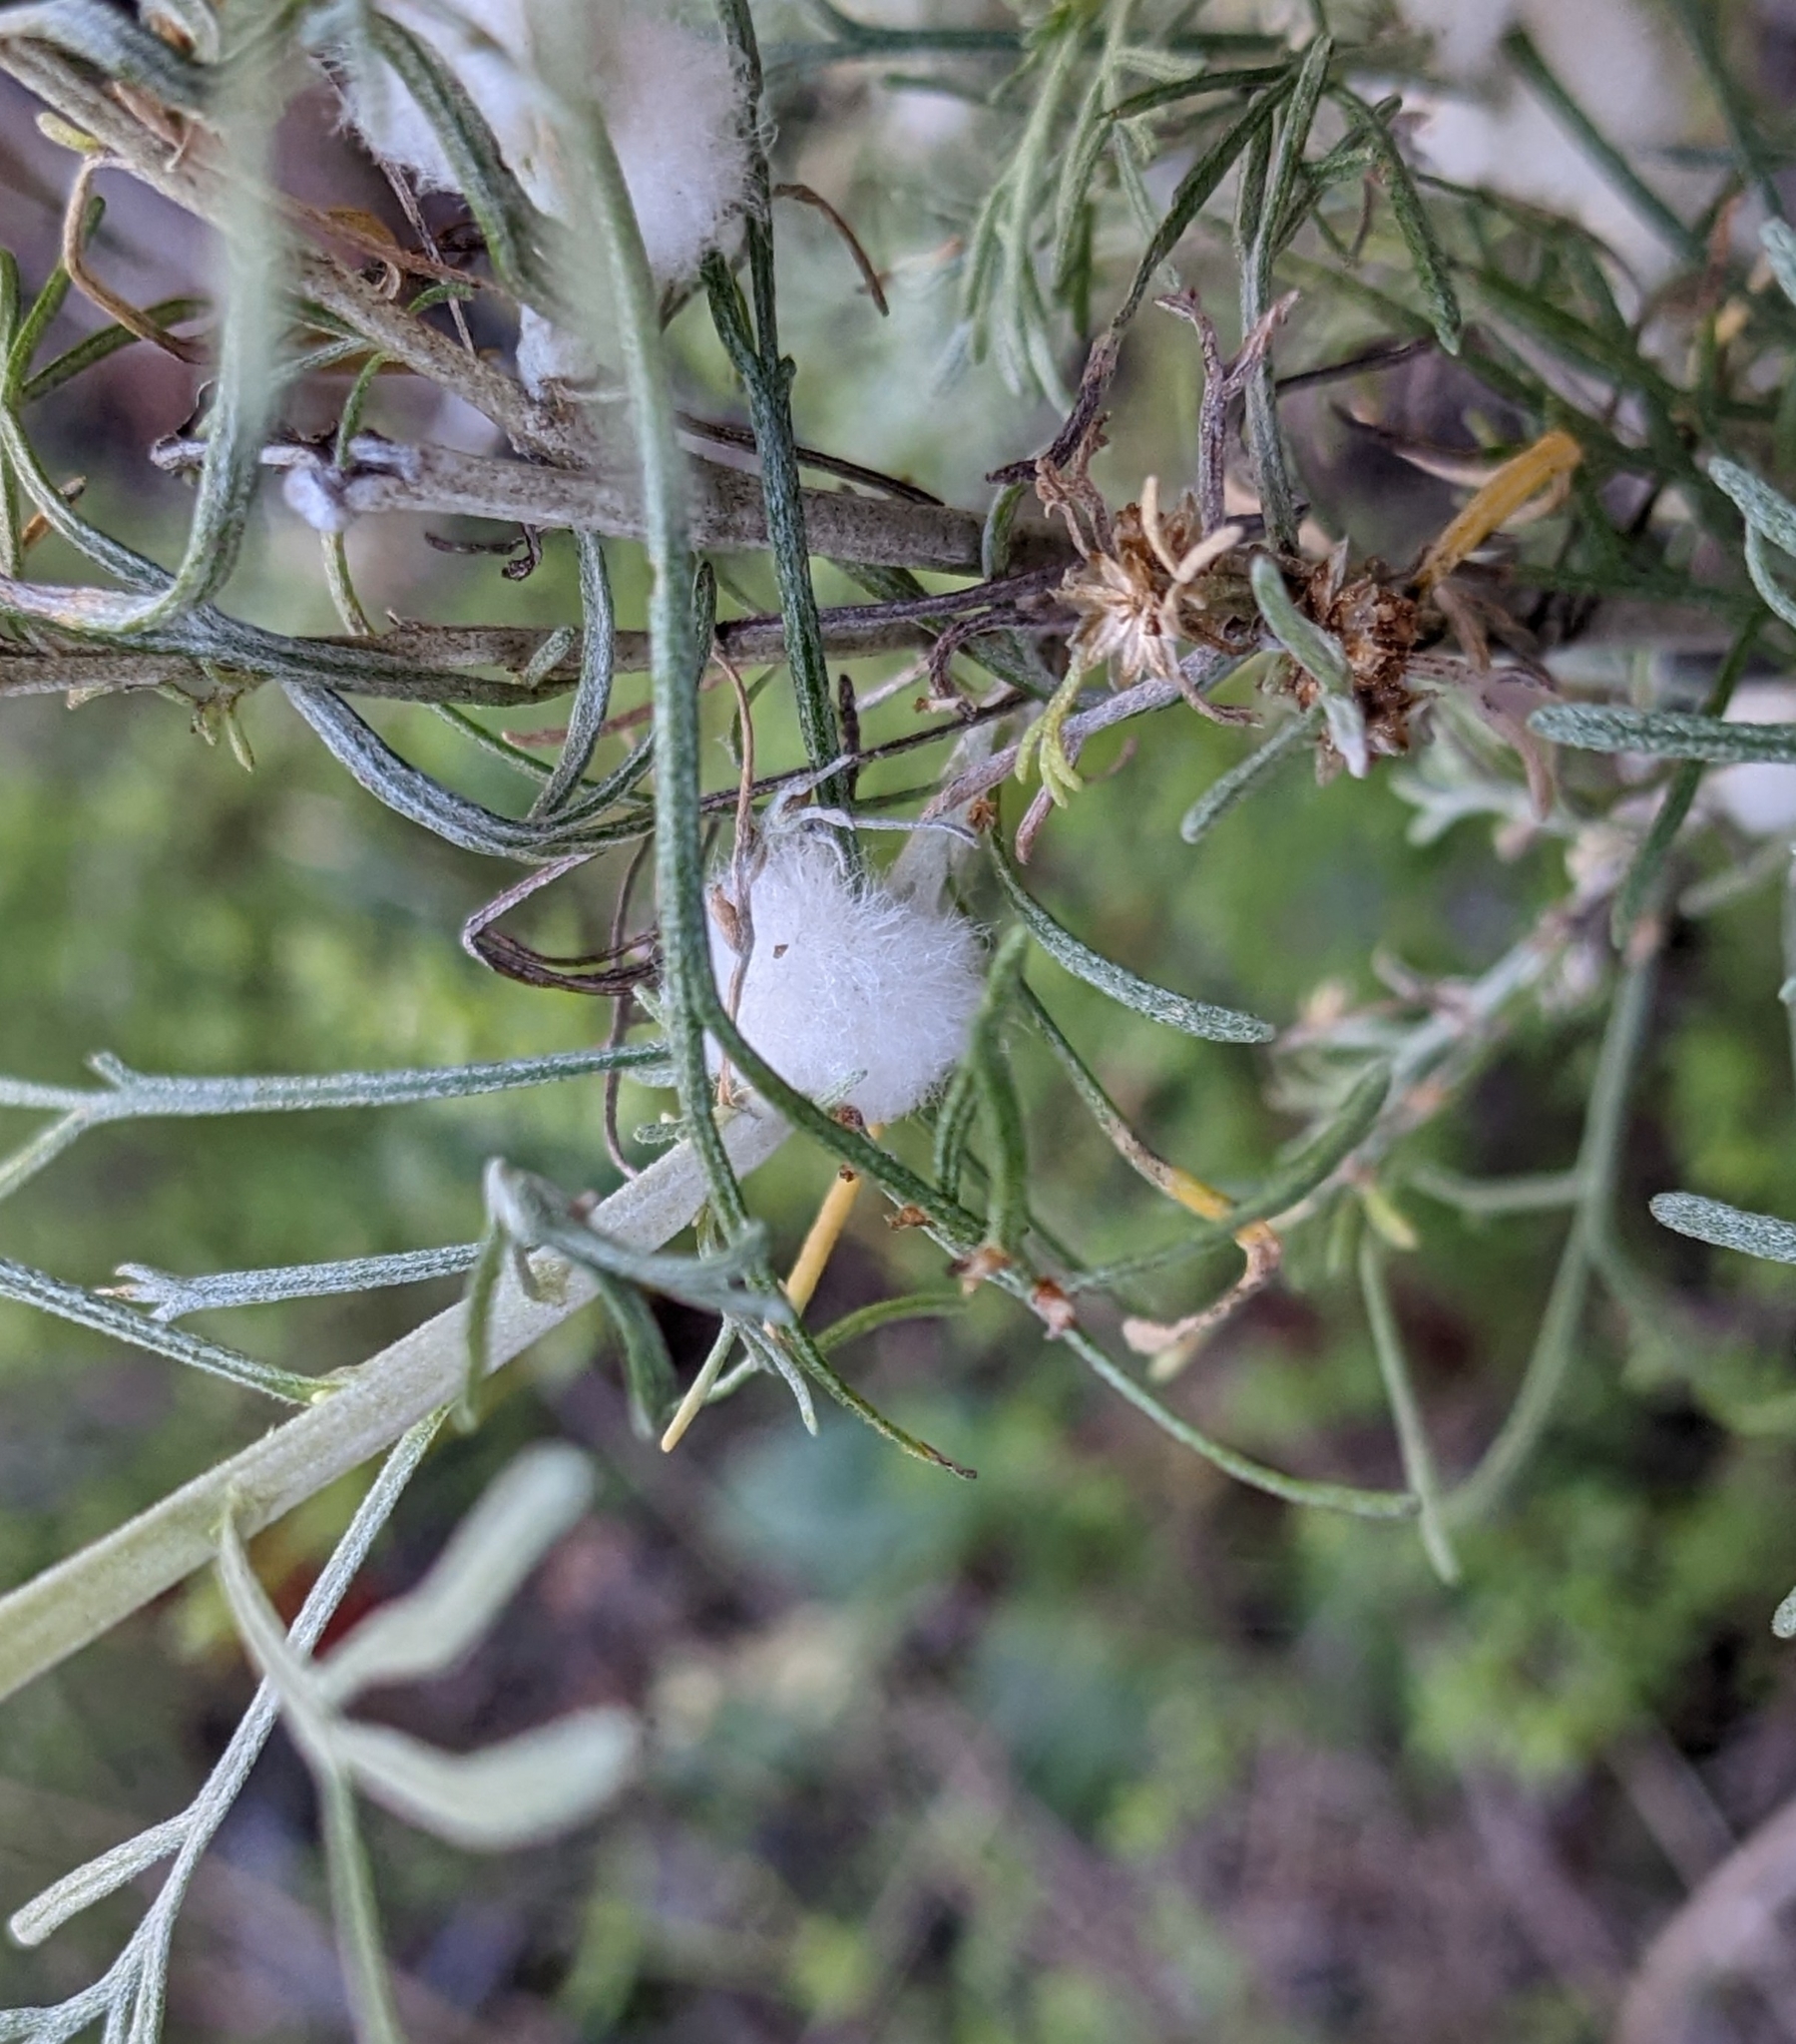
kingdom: Animalia
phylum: Arthropoda
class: Insecta
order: Diptera
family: Cecidomyiidae
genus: Rhopalomyia
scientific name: Rhopalomyia floccosa
